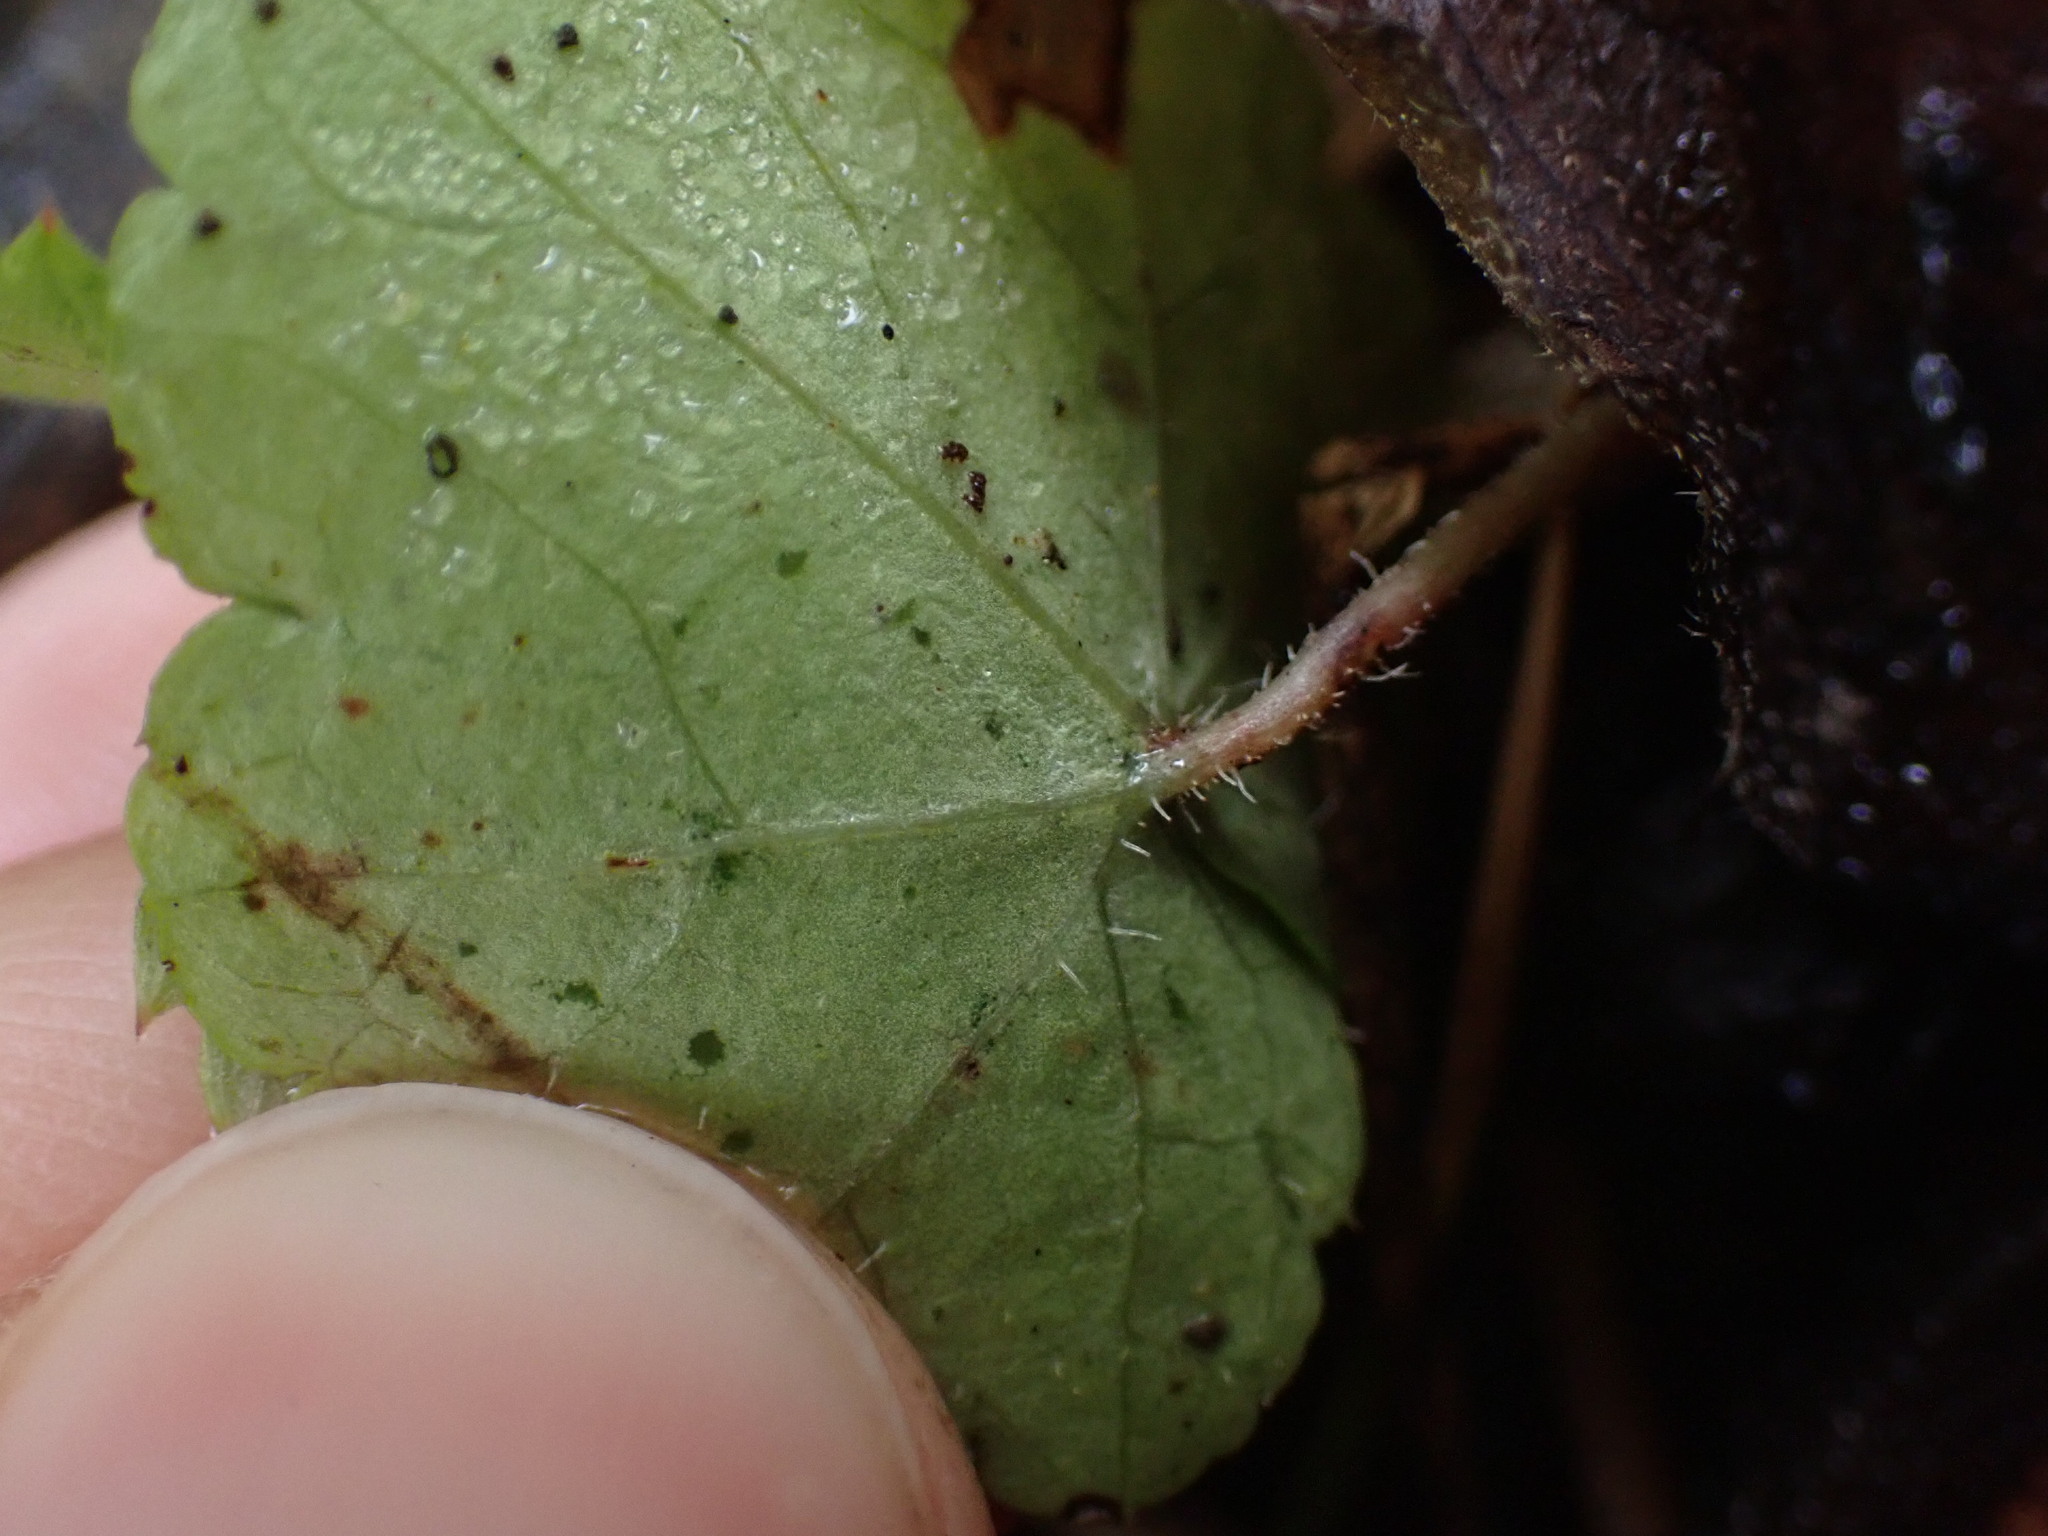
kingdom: Plantae
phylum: Tracheophyta
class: Magnoliopsida
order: Saxifragales
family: Saxifragaceae
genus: Mitella
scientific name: Mitella nuda
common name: Bare-stemmed bishop's-cap
